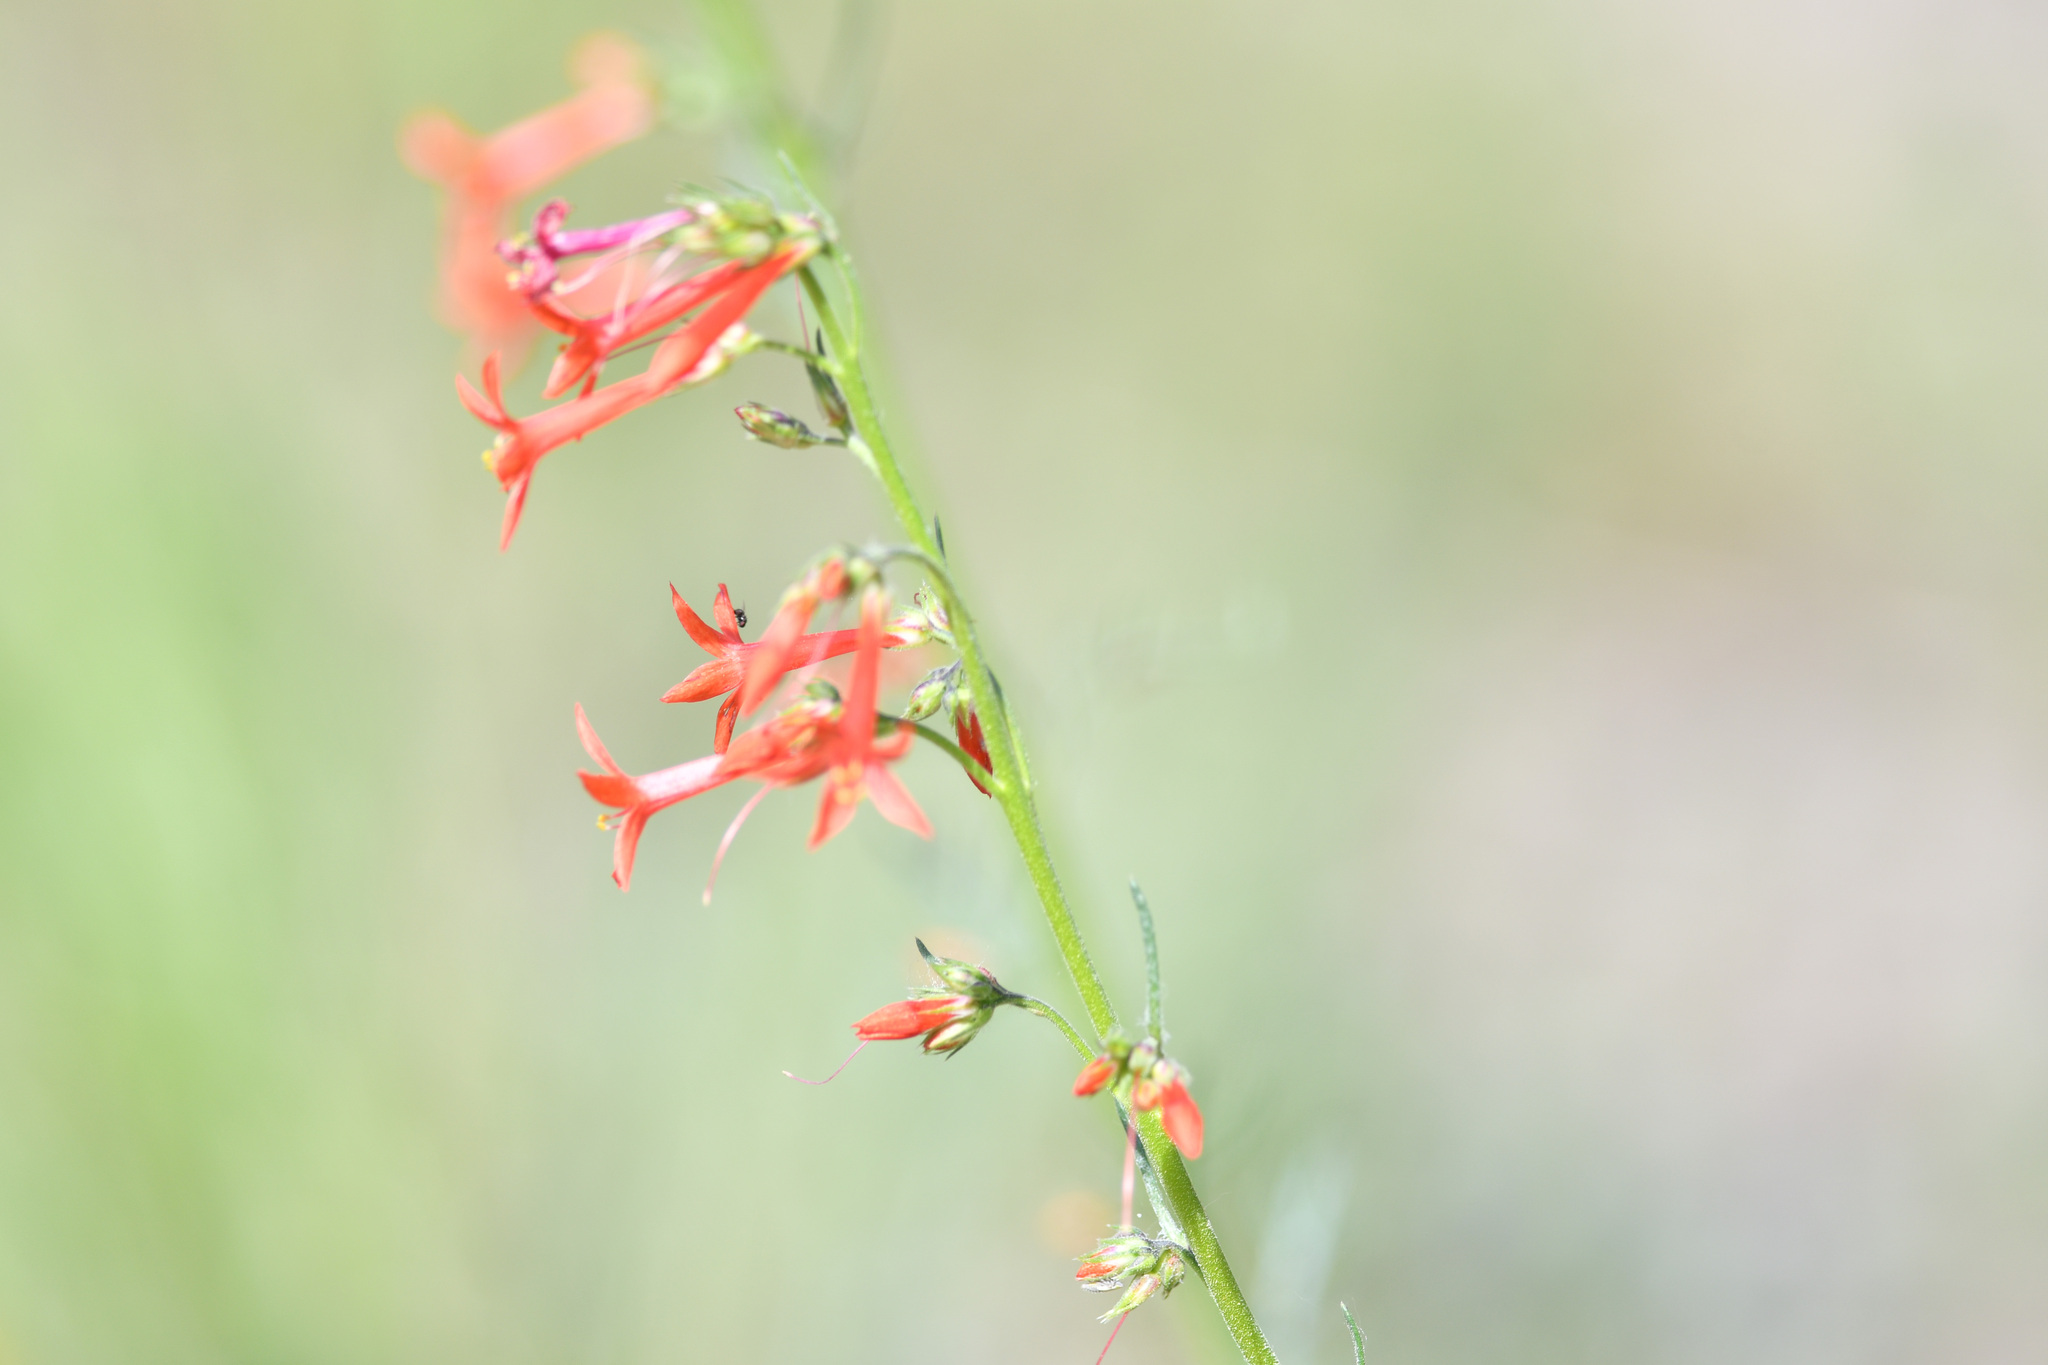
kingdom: Plantae
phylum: Tracheophyta
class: Magnoliopsida
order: Ericales
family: Polemoniaceae
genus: Ipomopsis
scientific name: Ipomopsis aggregata
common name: Scarlet gilia
